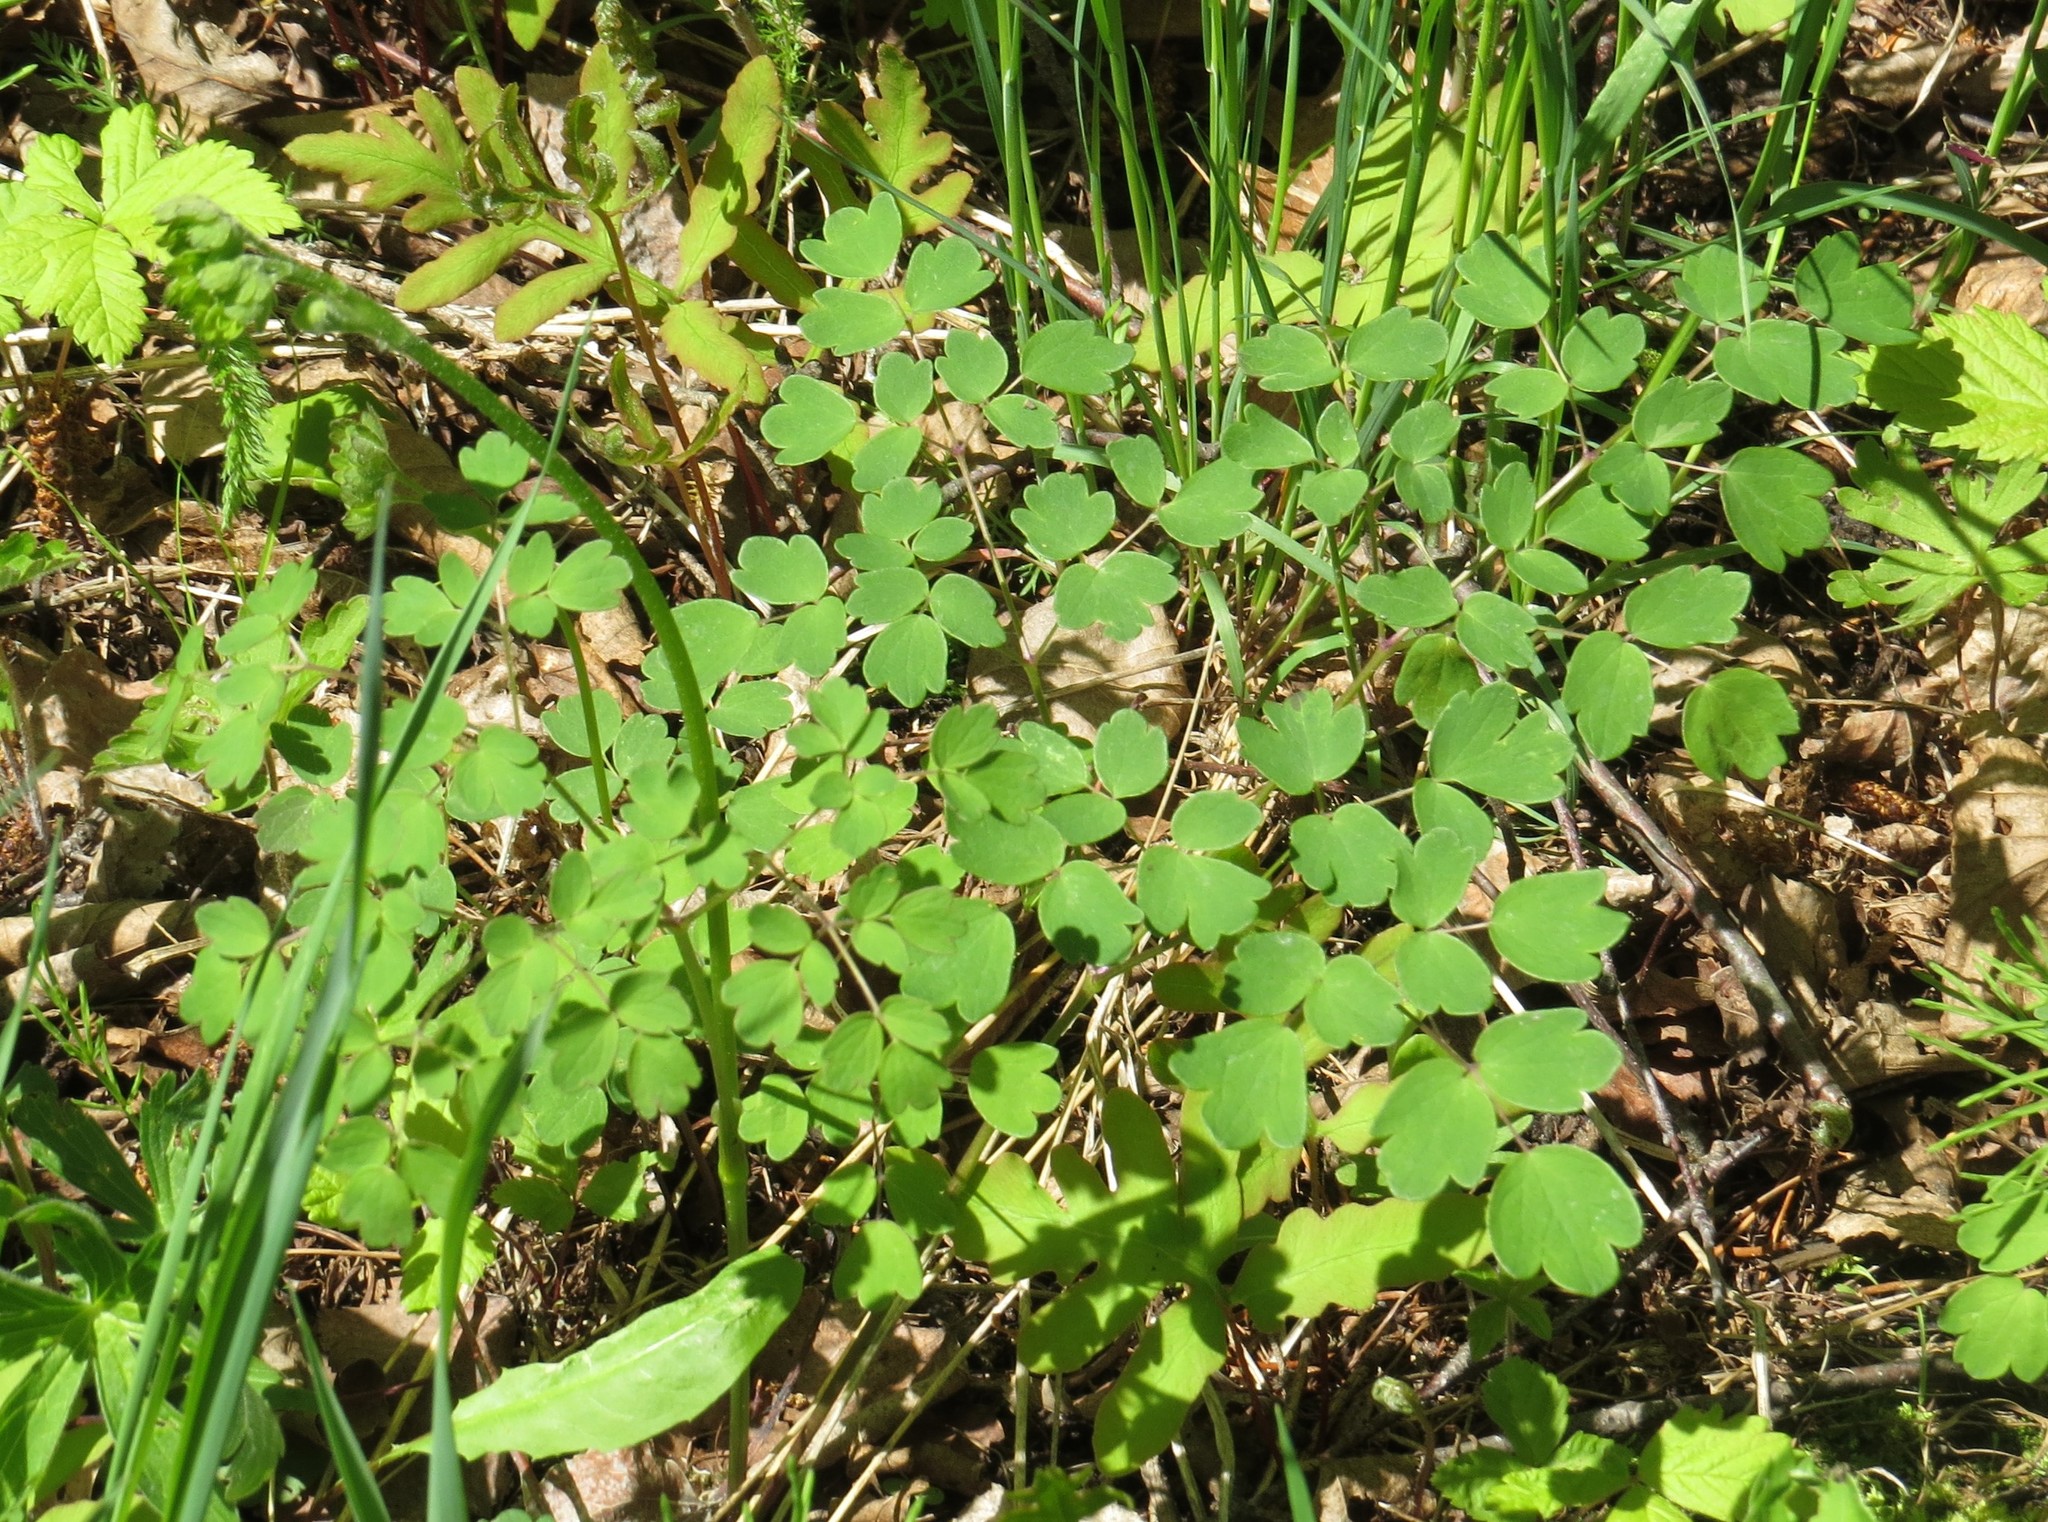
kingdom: Plantae
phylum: Tracheophyta
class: Magnoliopsida
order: Ranunculales
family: Ranunculaceae
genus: Thalictrum
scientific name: Thalictrum dioicum
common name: Early meadow-rue
